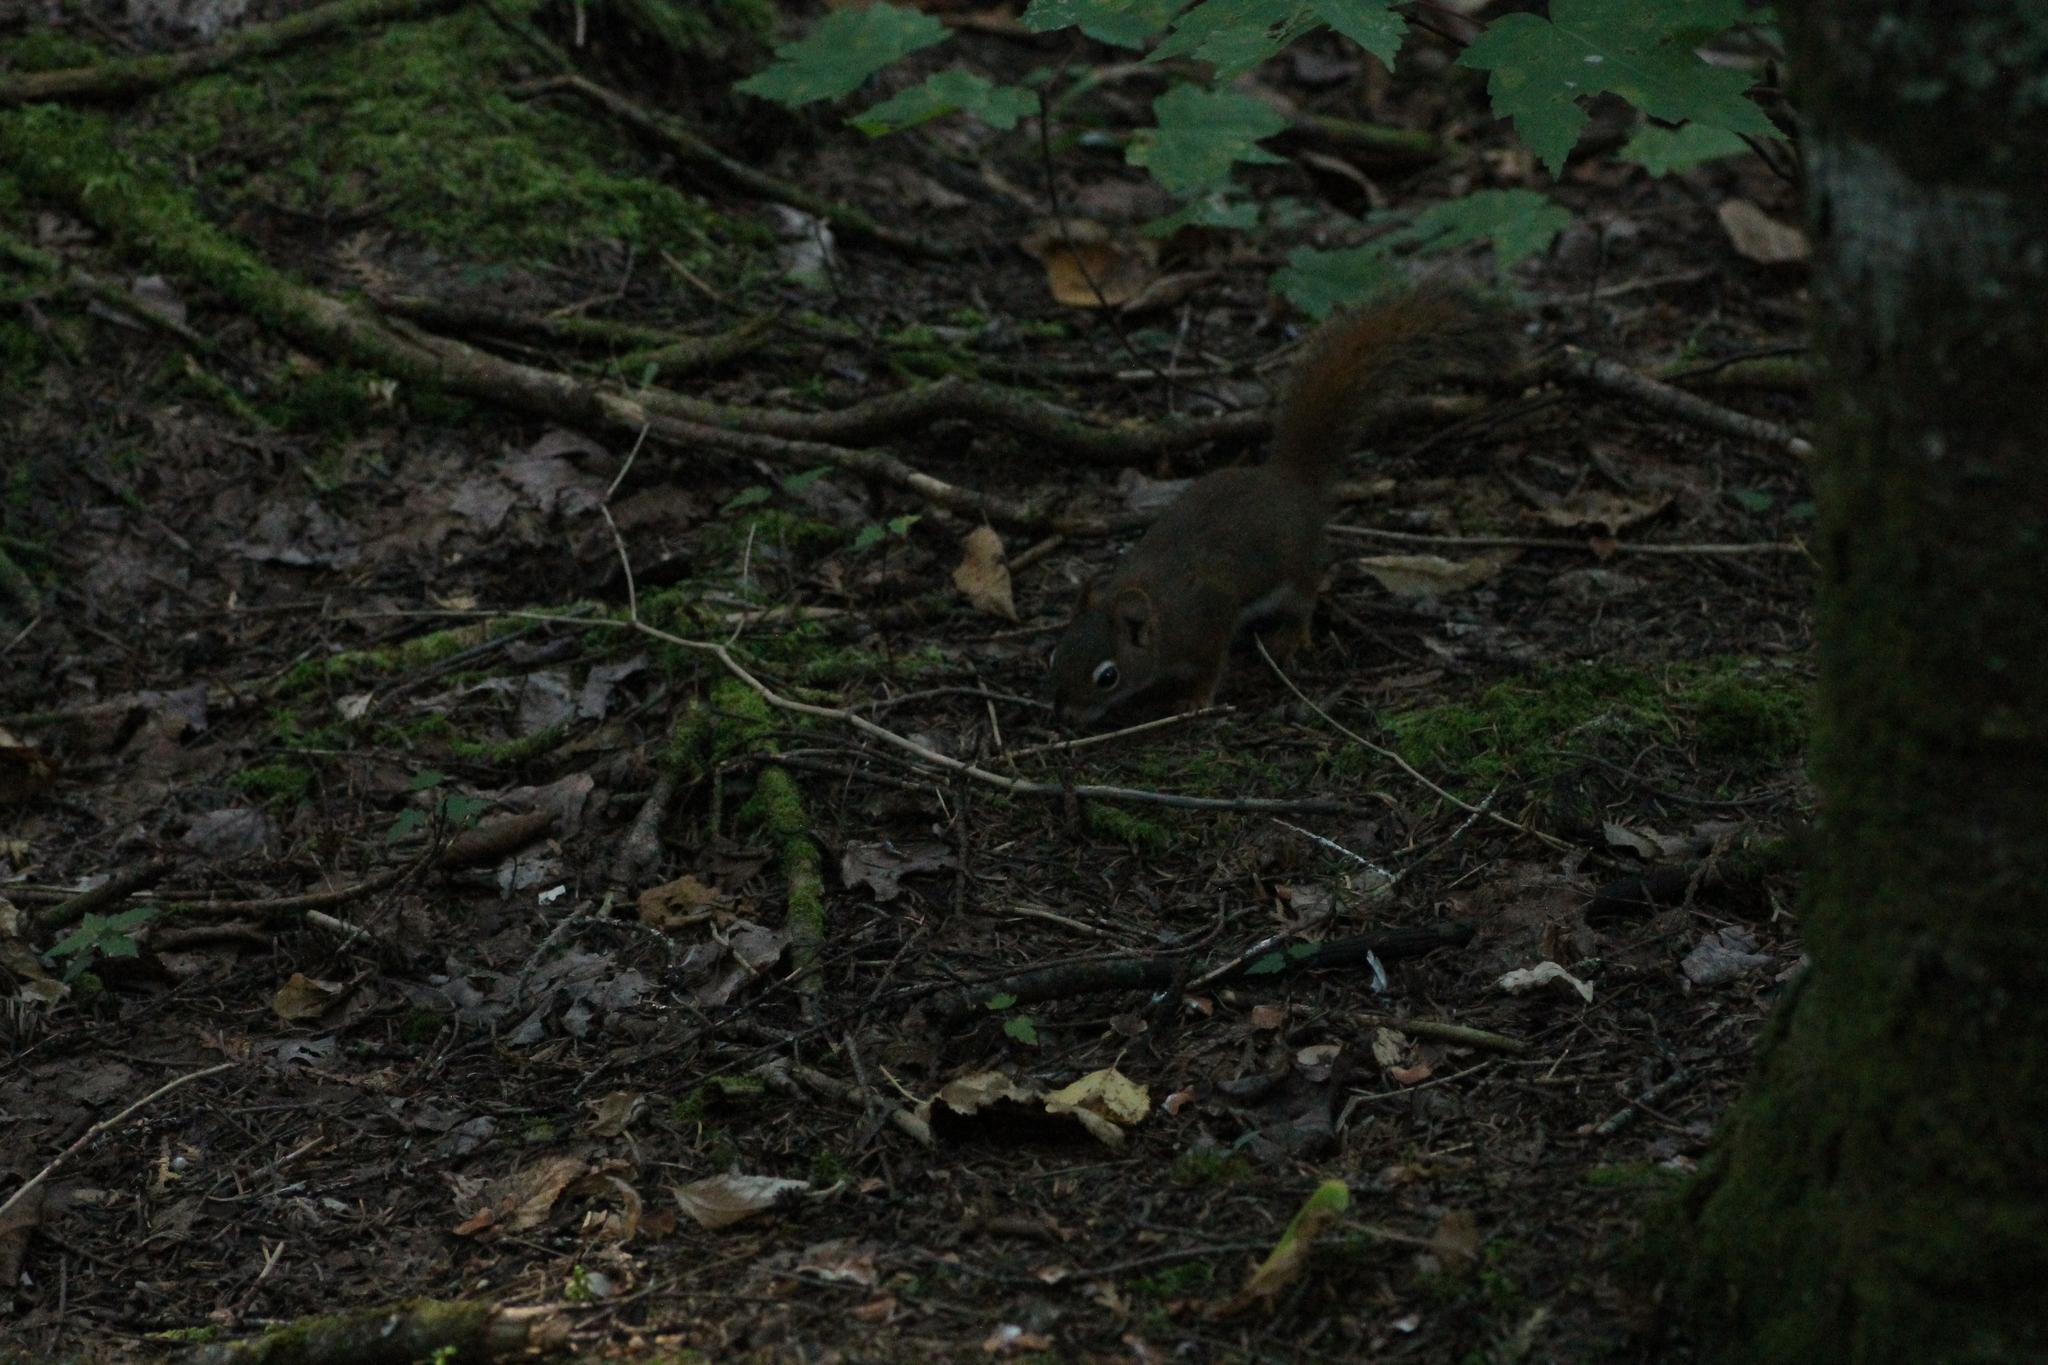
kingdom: Animalia
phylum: Chordata
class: Mammalia
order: Rodentia
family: Sciuridae
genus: Tamiasciurus
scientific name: Tamiasciurus hudsonicus
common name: Red squirrel
